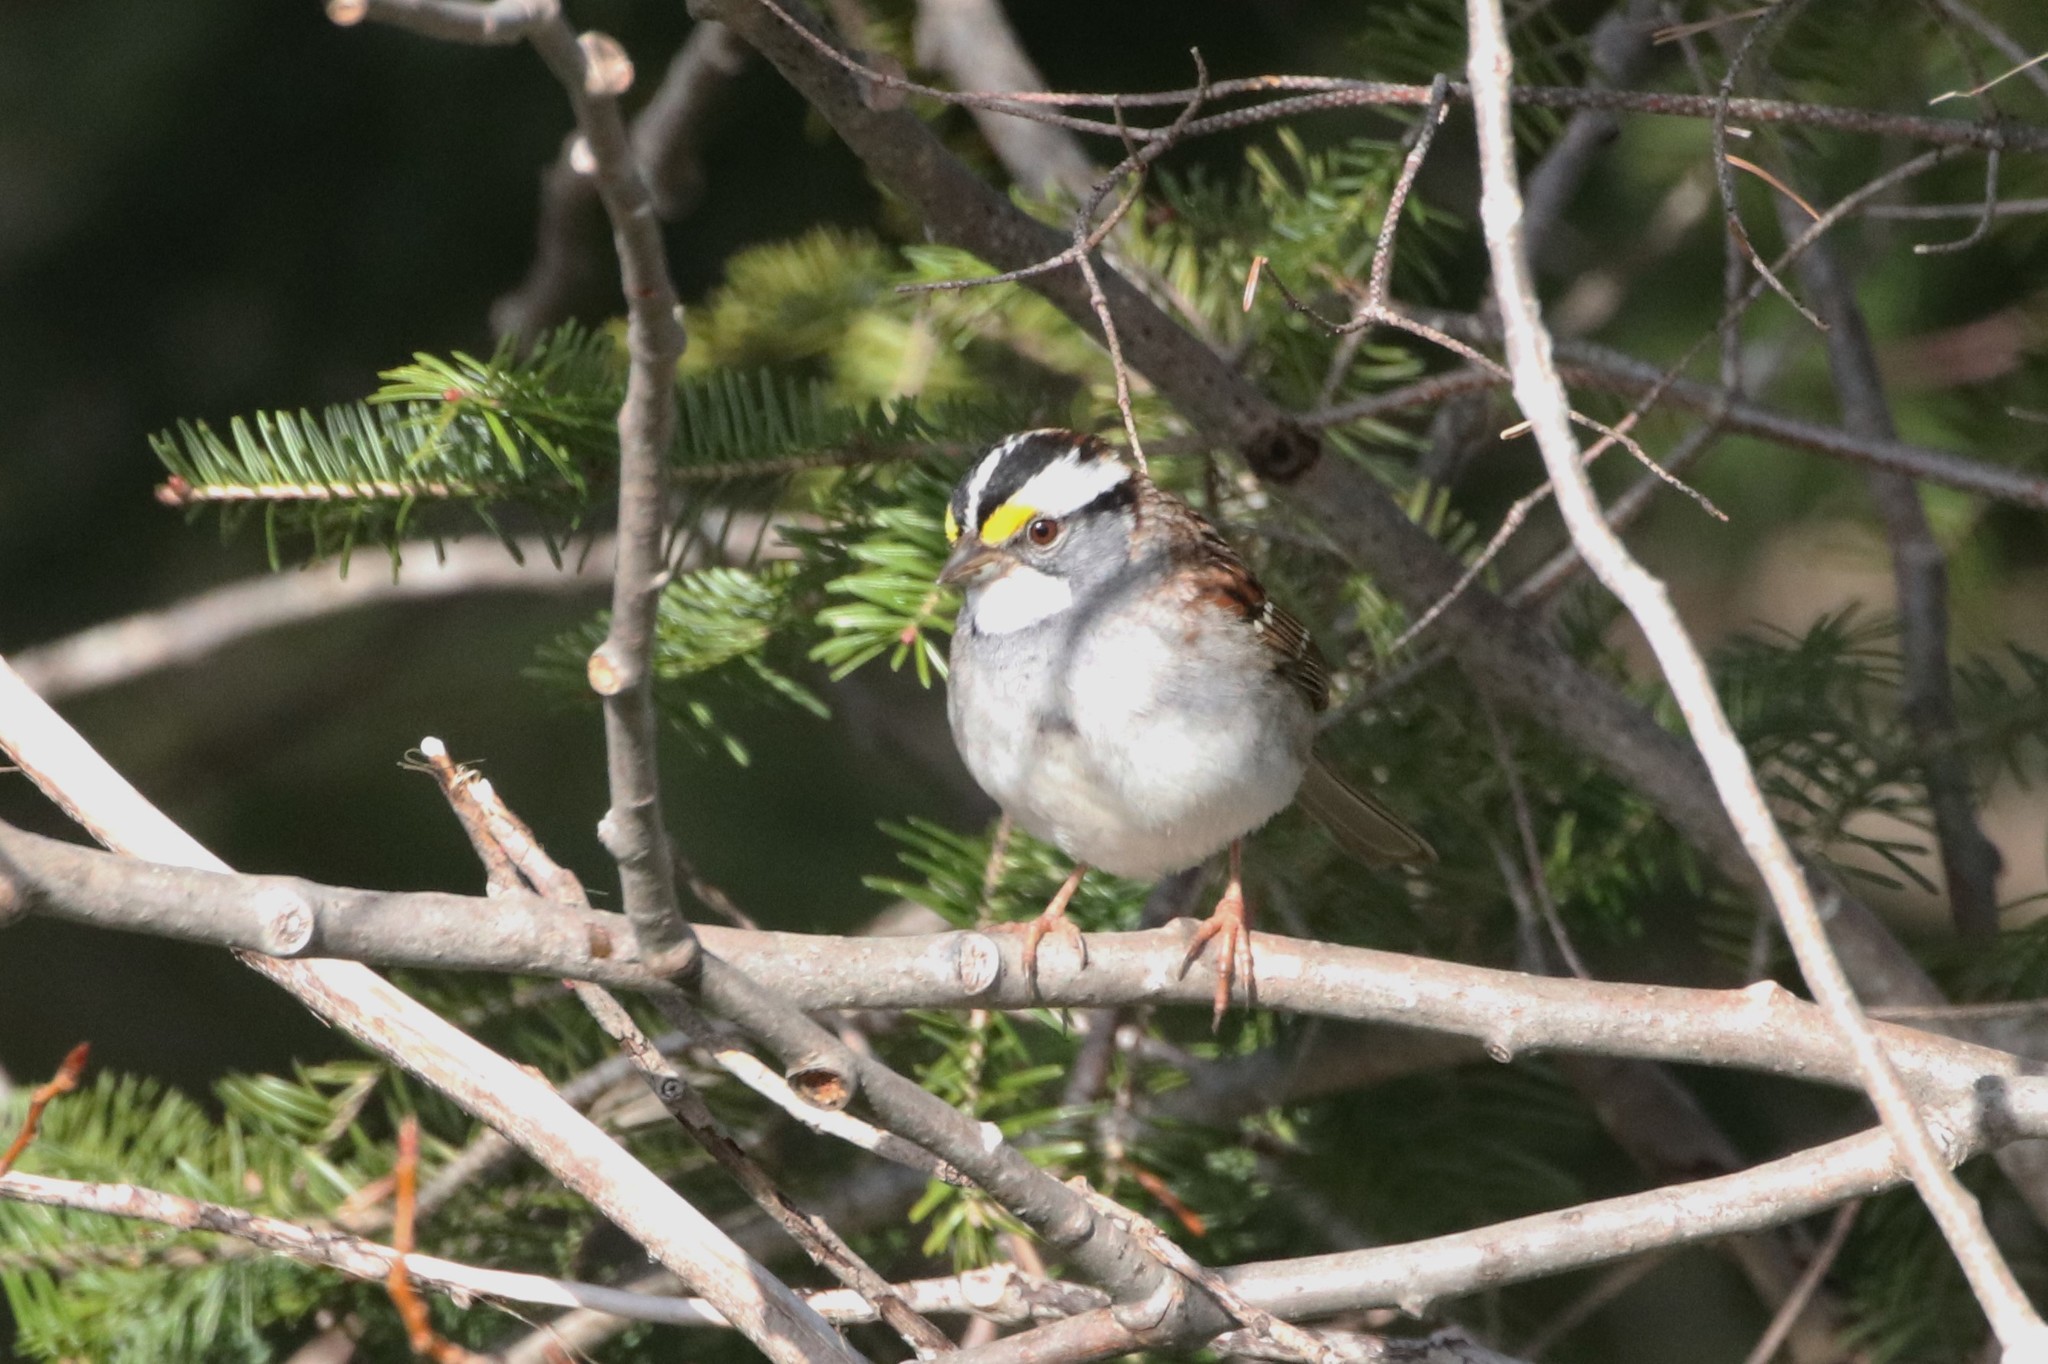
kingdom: Animalia
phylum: Chordata
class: Aves
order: Passeriformes
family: Passerellidae
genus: Zonotrichia
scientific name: Zonotrichia albicollis
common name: White-throated sparrow
